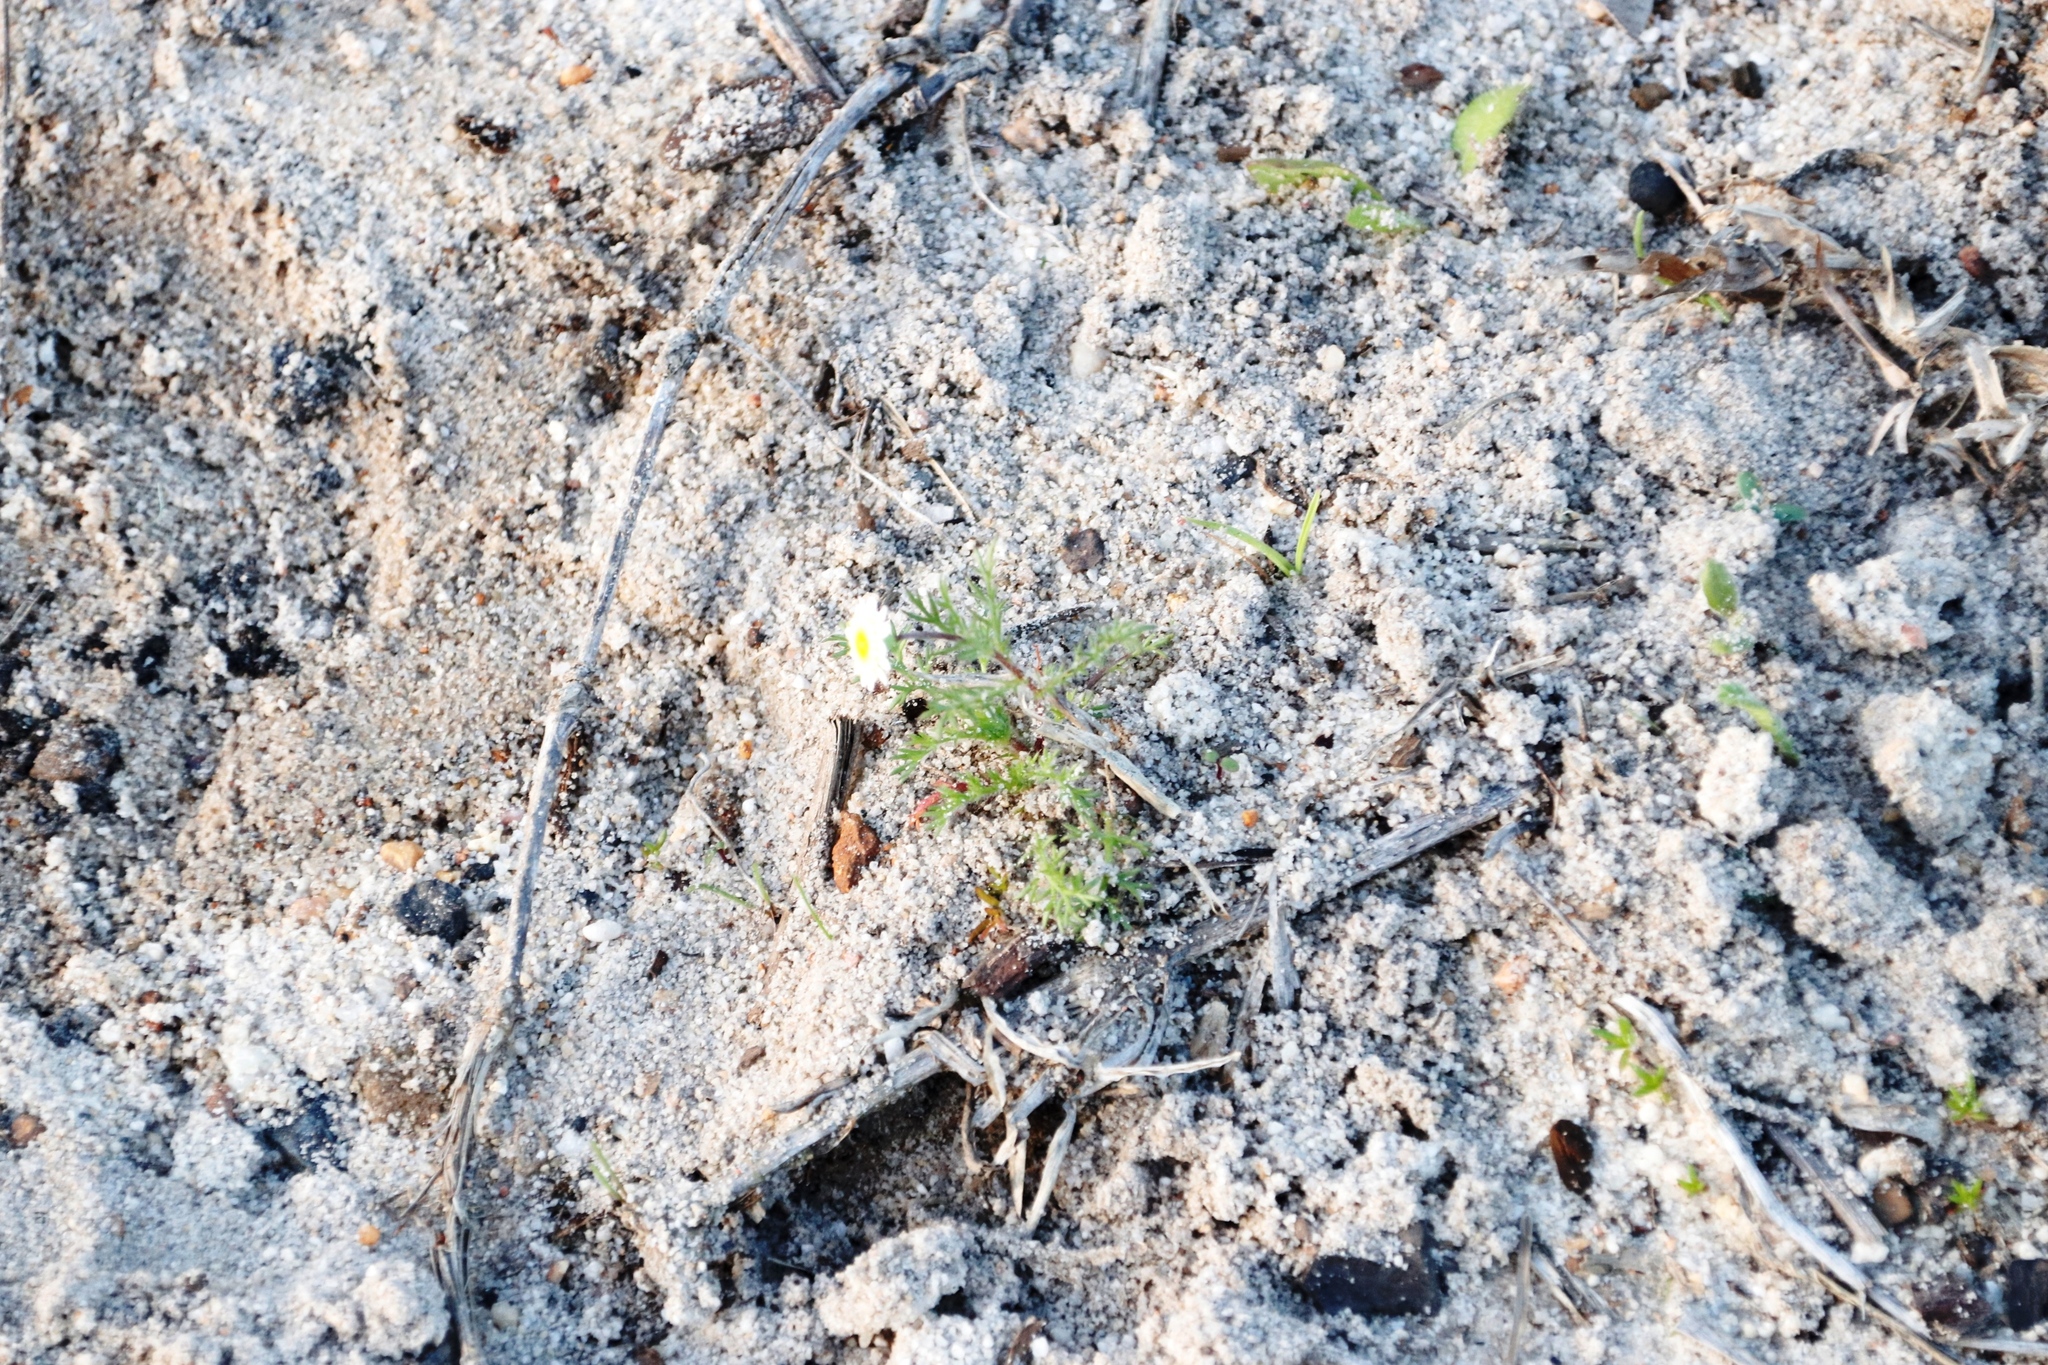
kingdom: Plantae
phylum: Tracheophyta
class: Magnoliopsida
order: Asterales
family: Asteraceae
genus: Cotula
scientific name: Cotula turbinata
